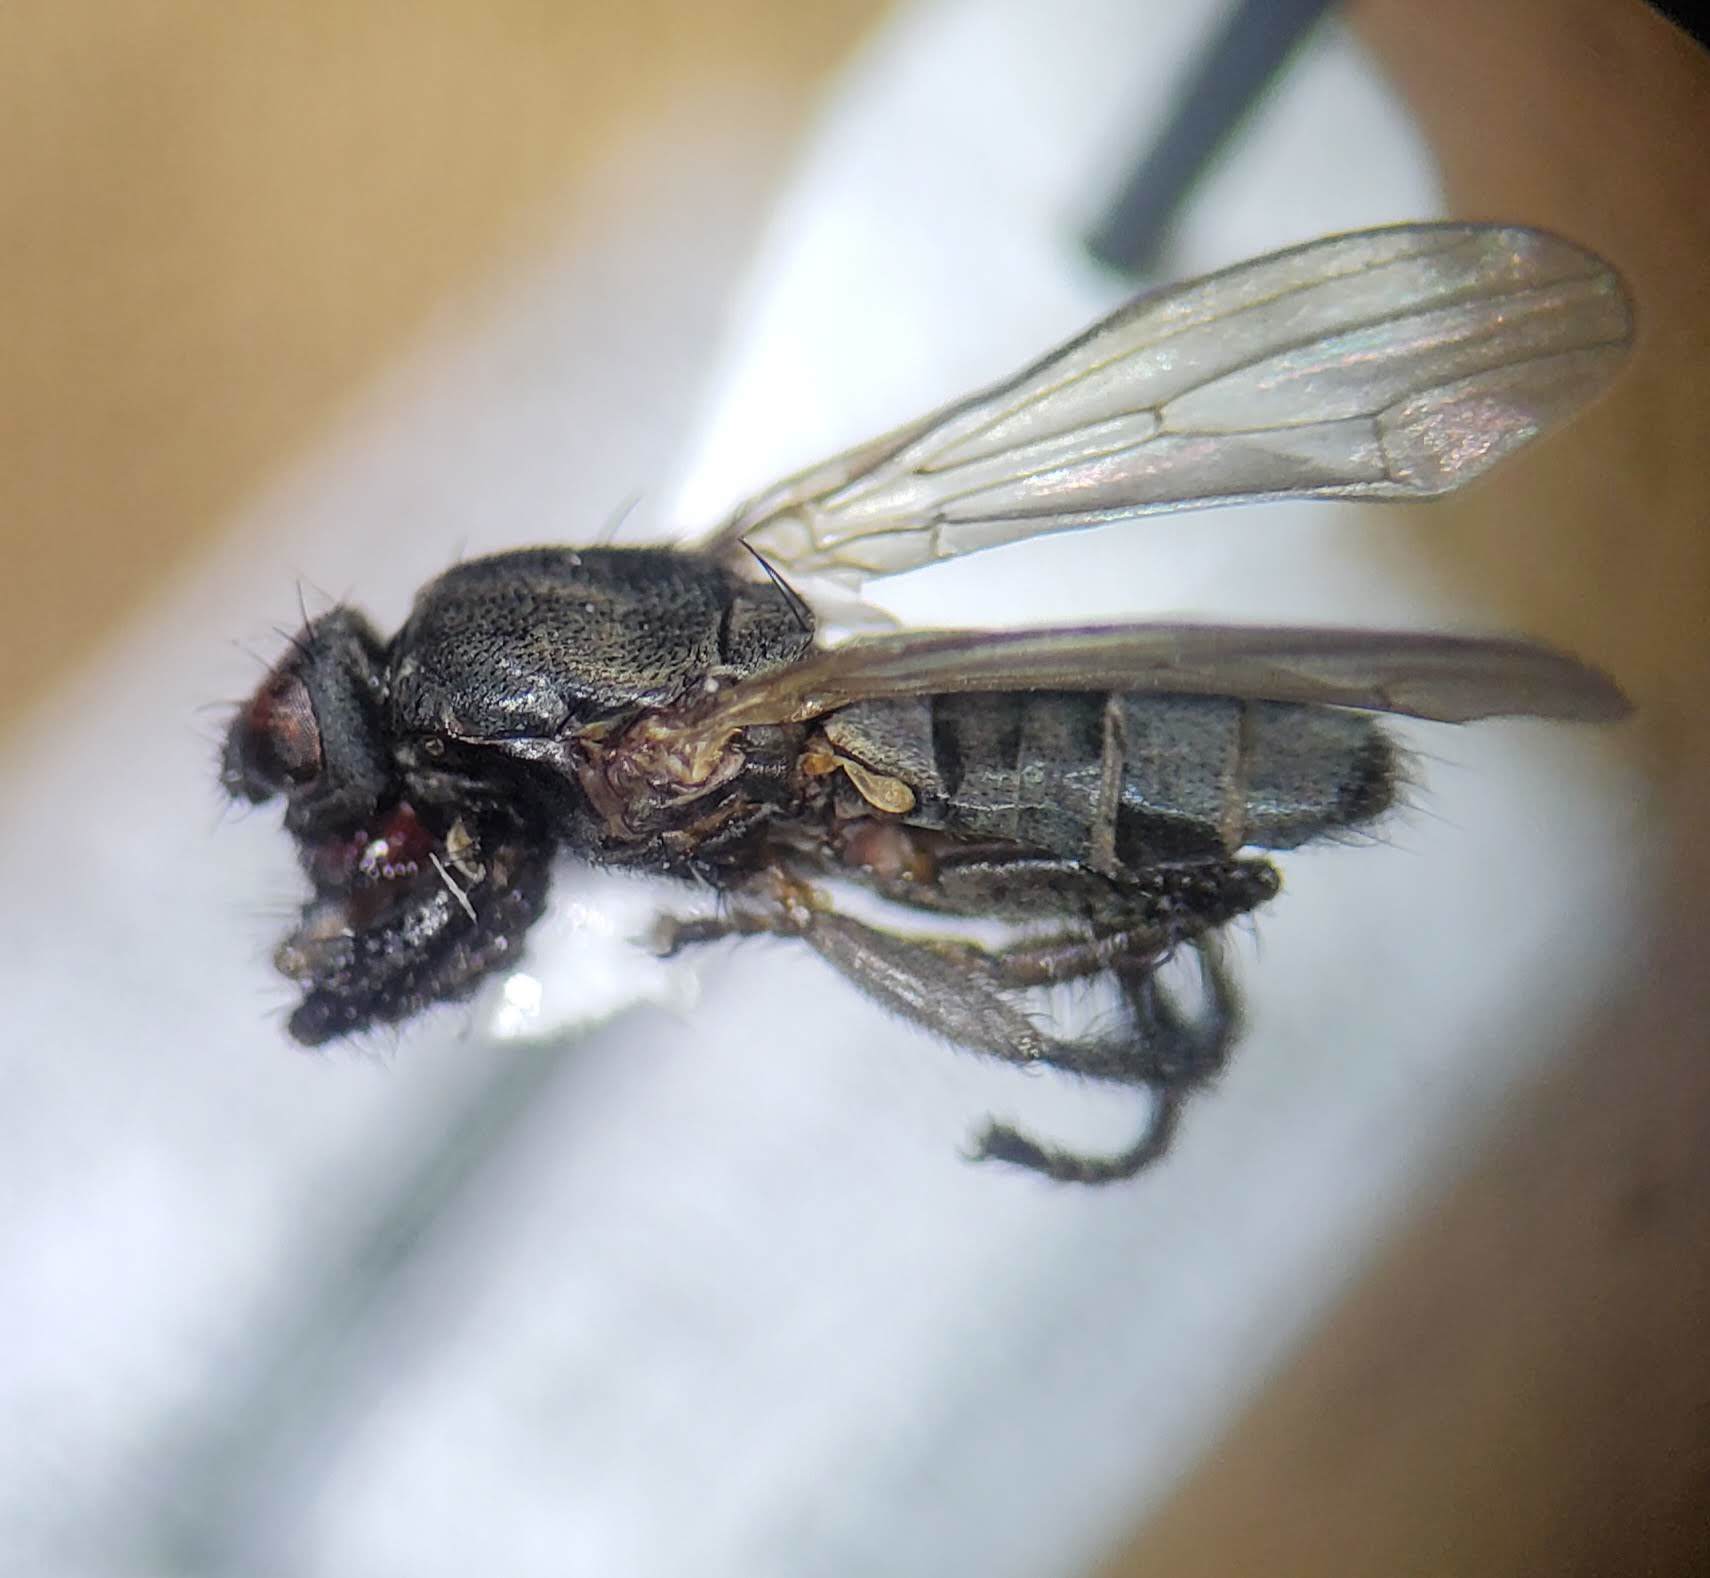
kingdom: Animalia
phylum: Arthropoda
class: Insecta
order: Diptera
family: Coelopidae
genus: Coelopa
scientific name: Coelopa vanduzeei
